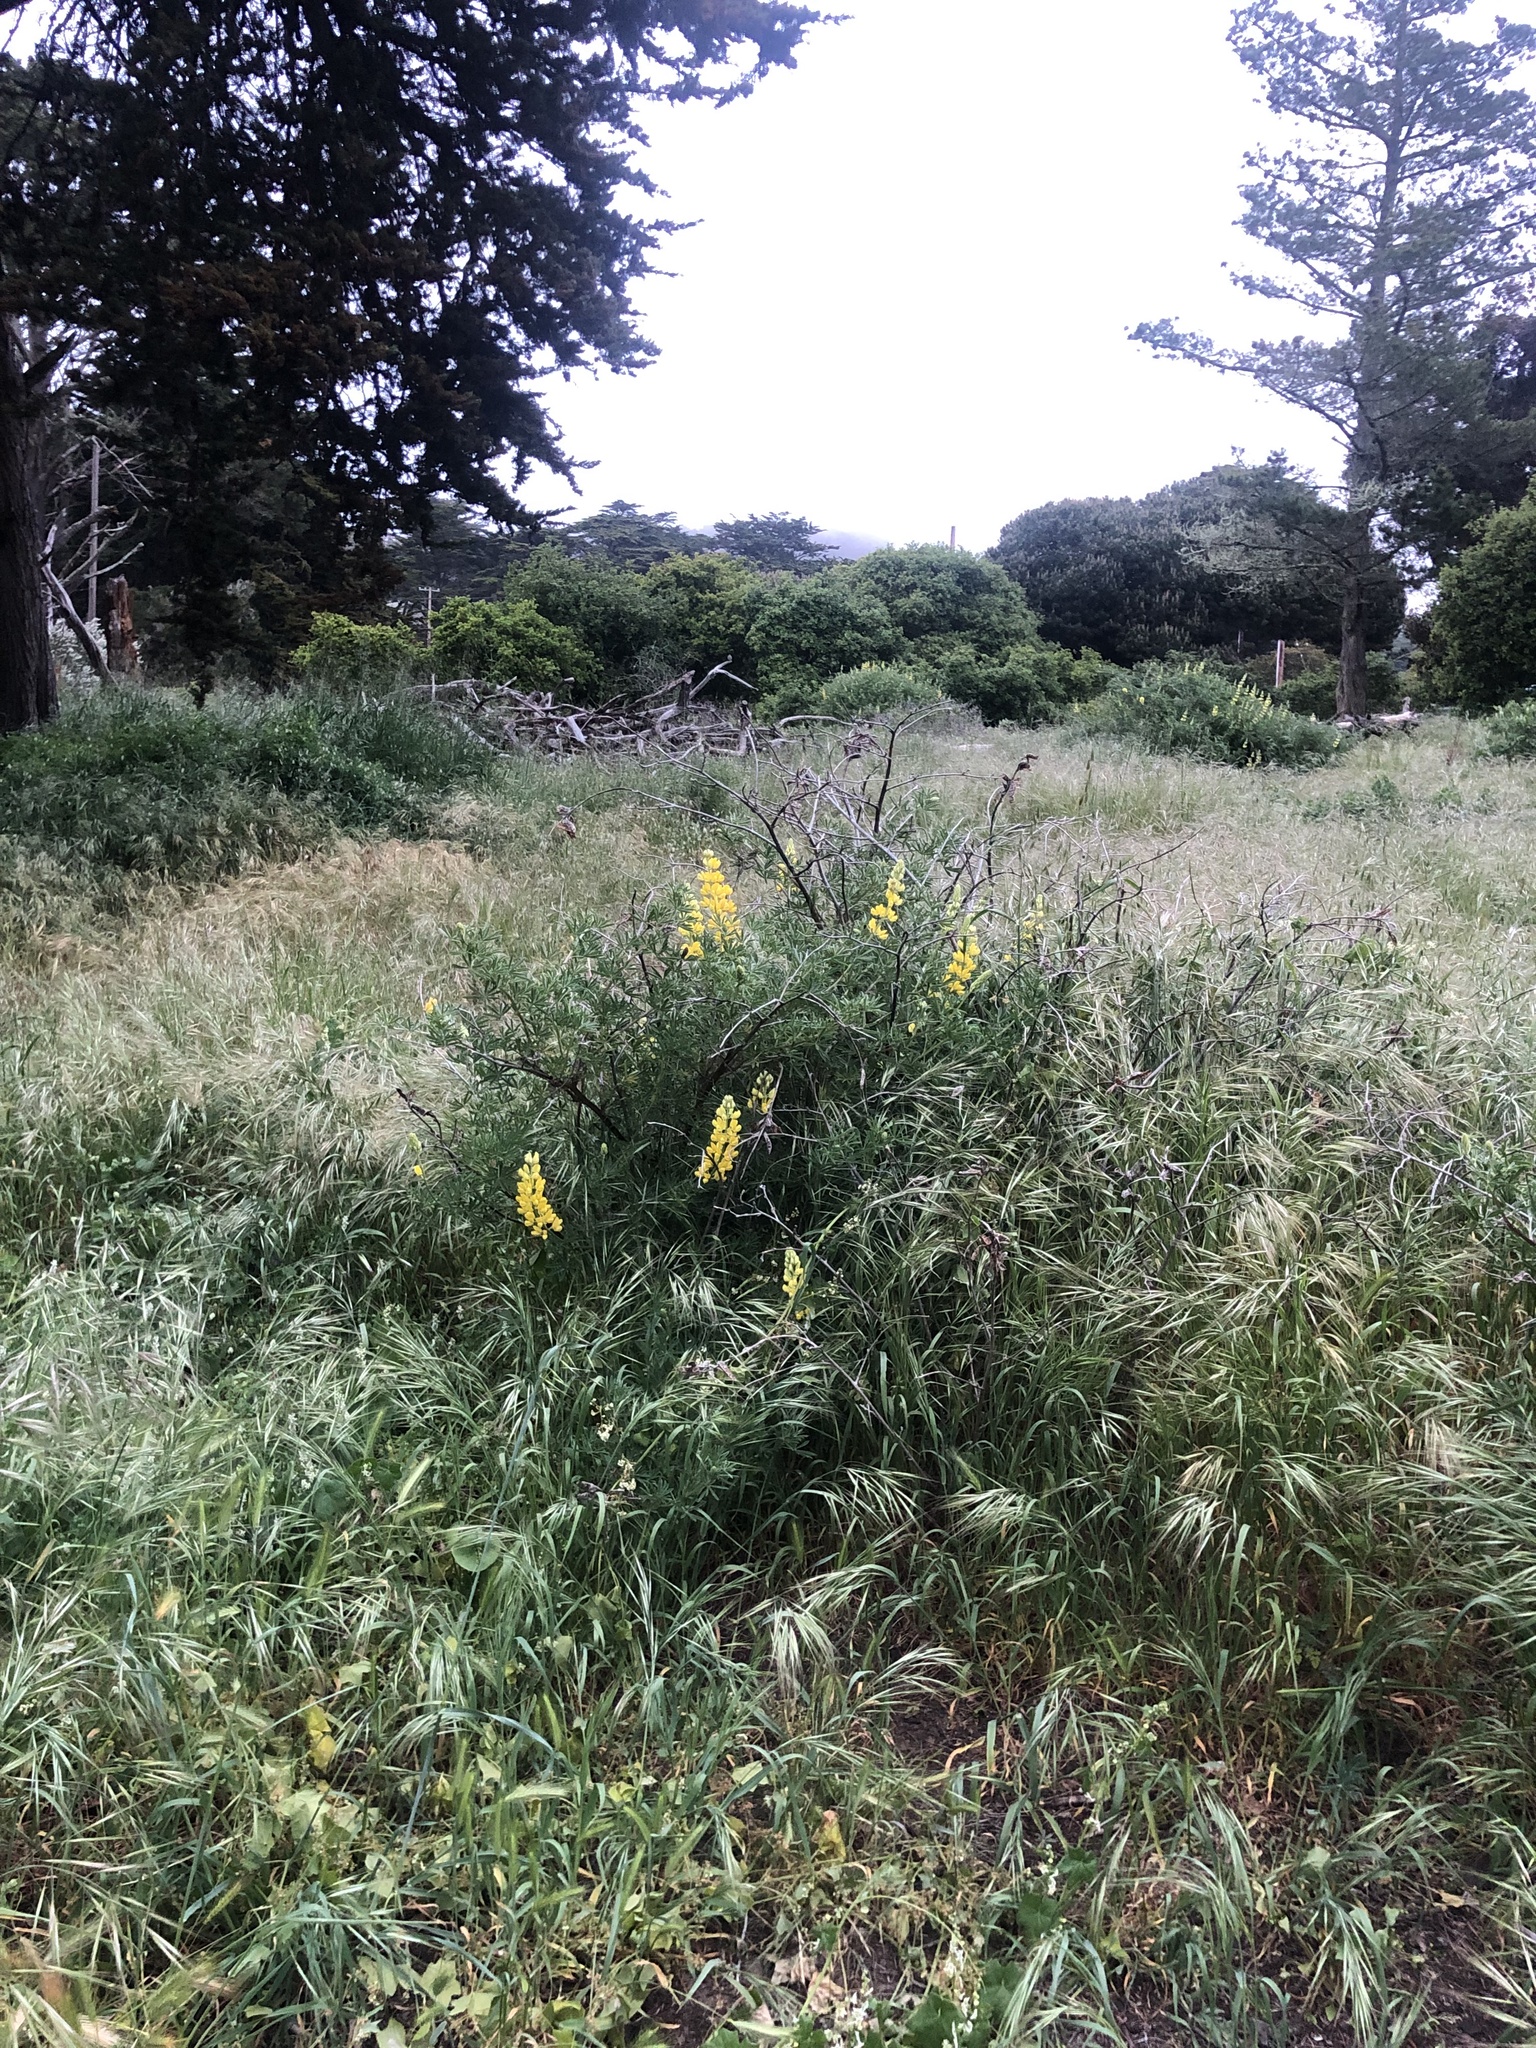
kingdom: Plantae
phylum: Tracheophyta
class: Magnoliopsida
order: Fabales
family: Fabaceae
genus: Lupinus
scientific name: Lupinus arboreus
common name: Yellow bush lupine
